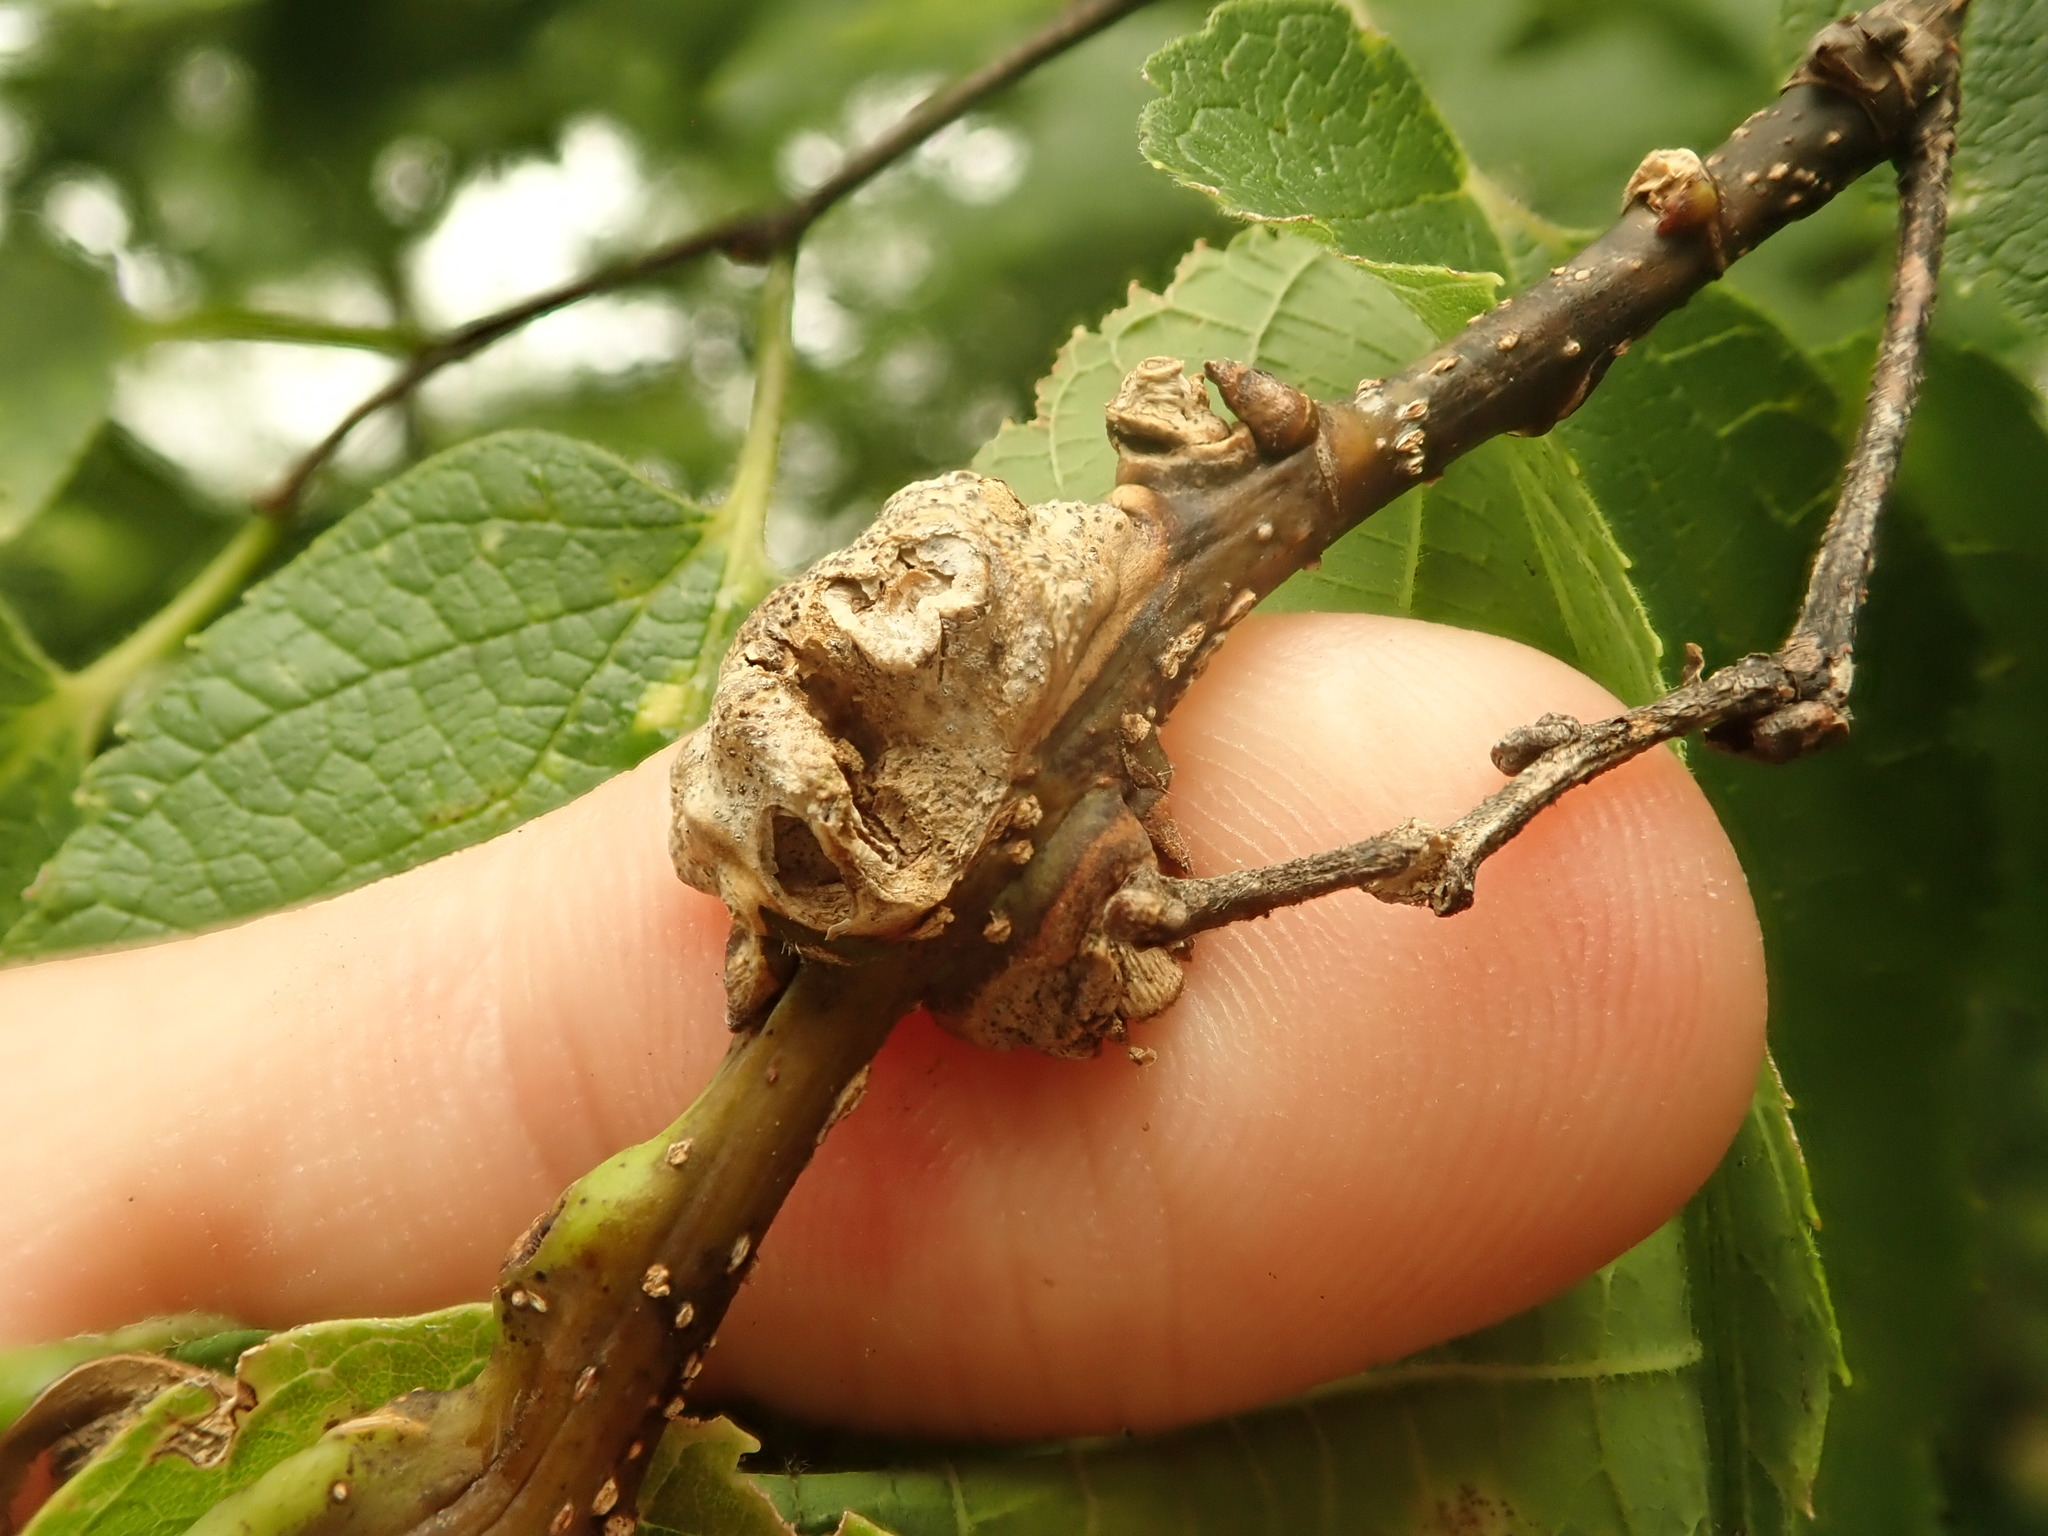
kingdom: Animalia
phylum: Arthropoda
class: Insecta
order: Diptera
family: Cecidomyiidae
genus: Celticecis
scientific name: Celticecis expulsa
